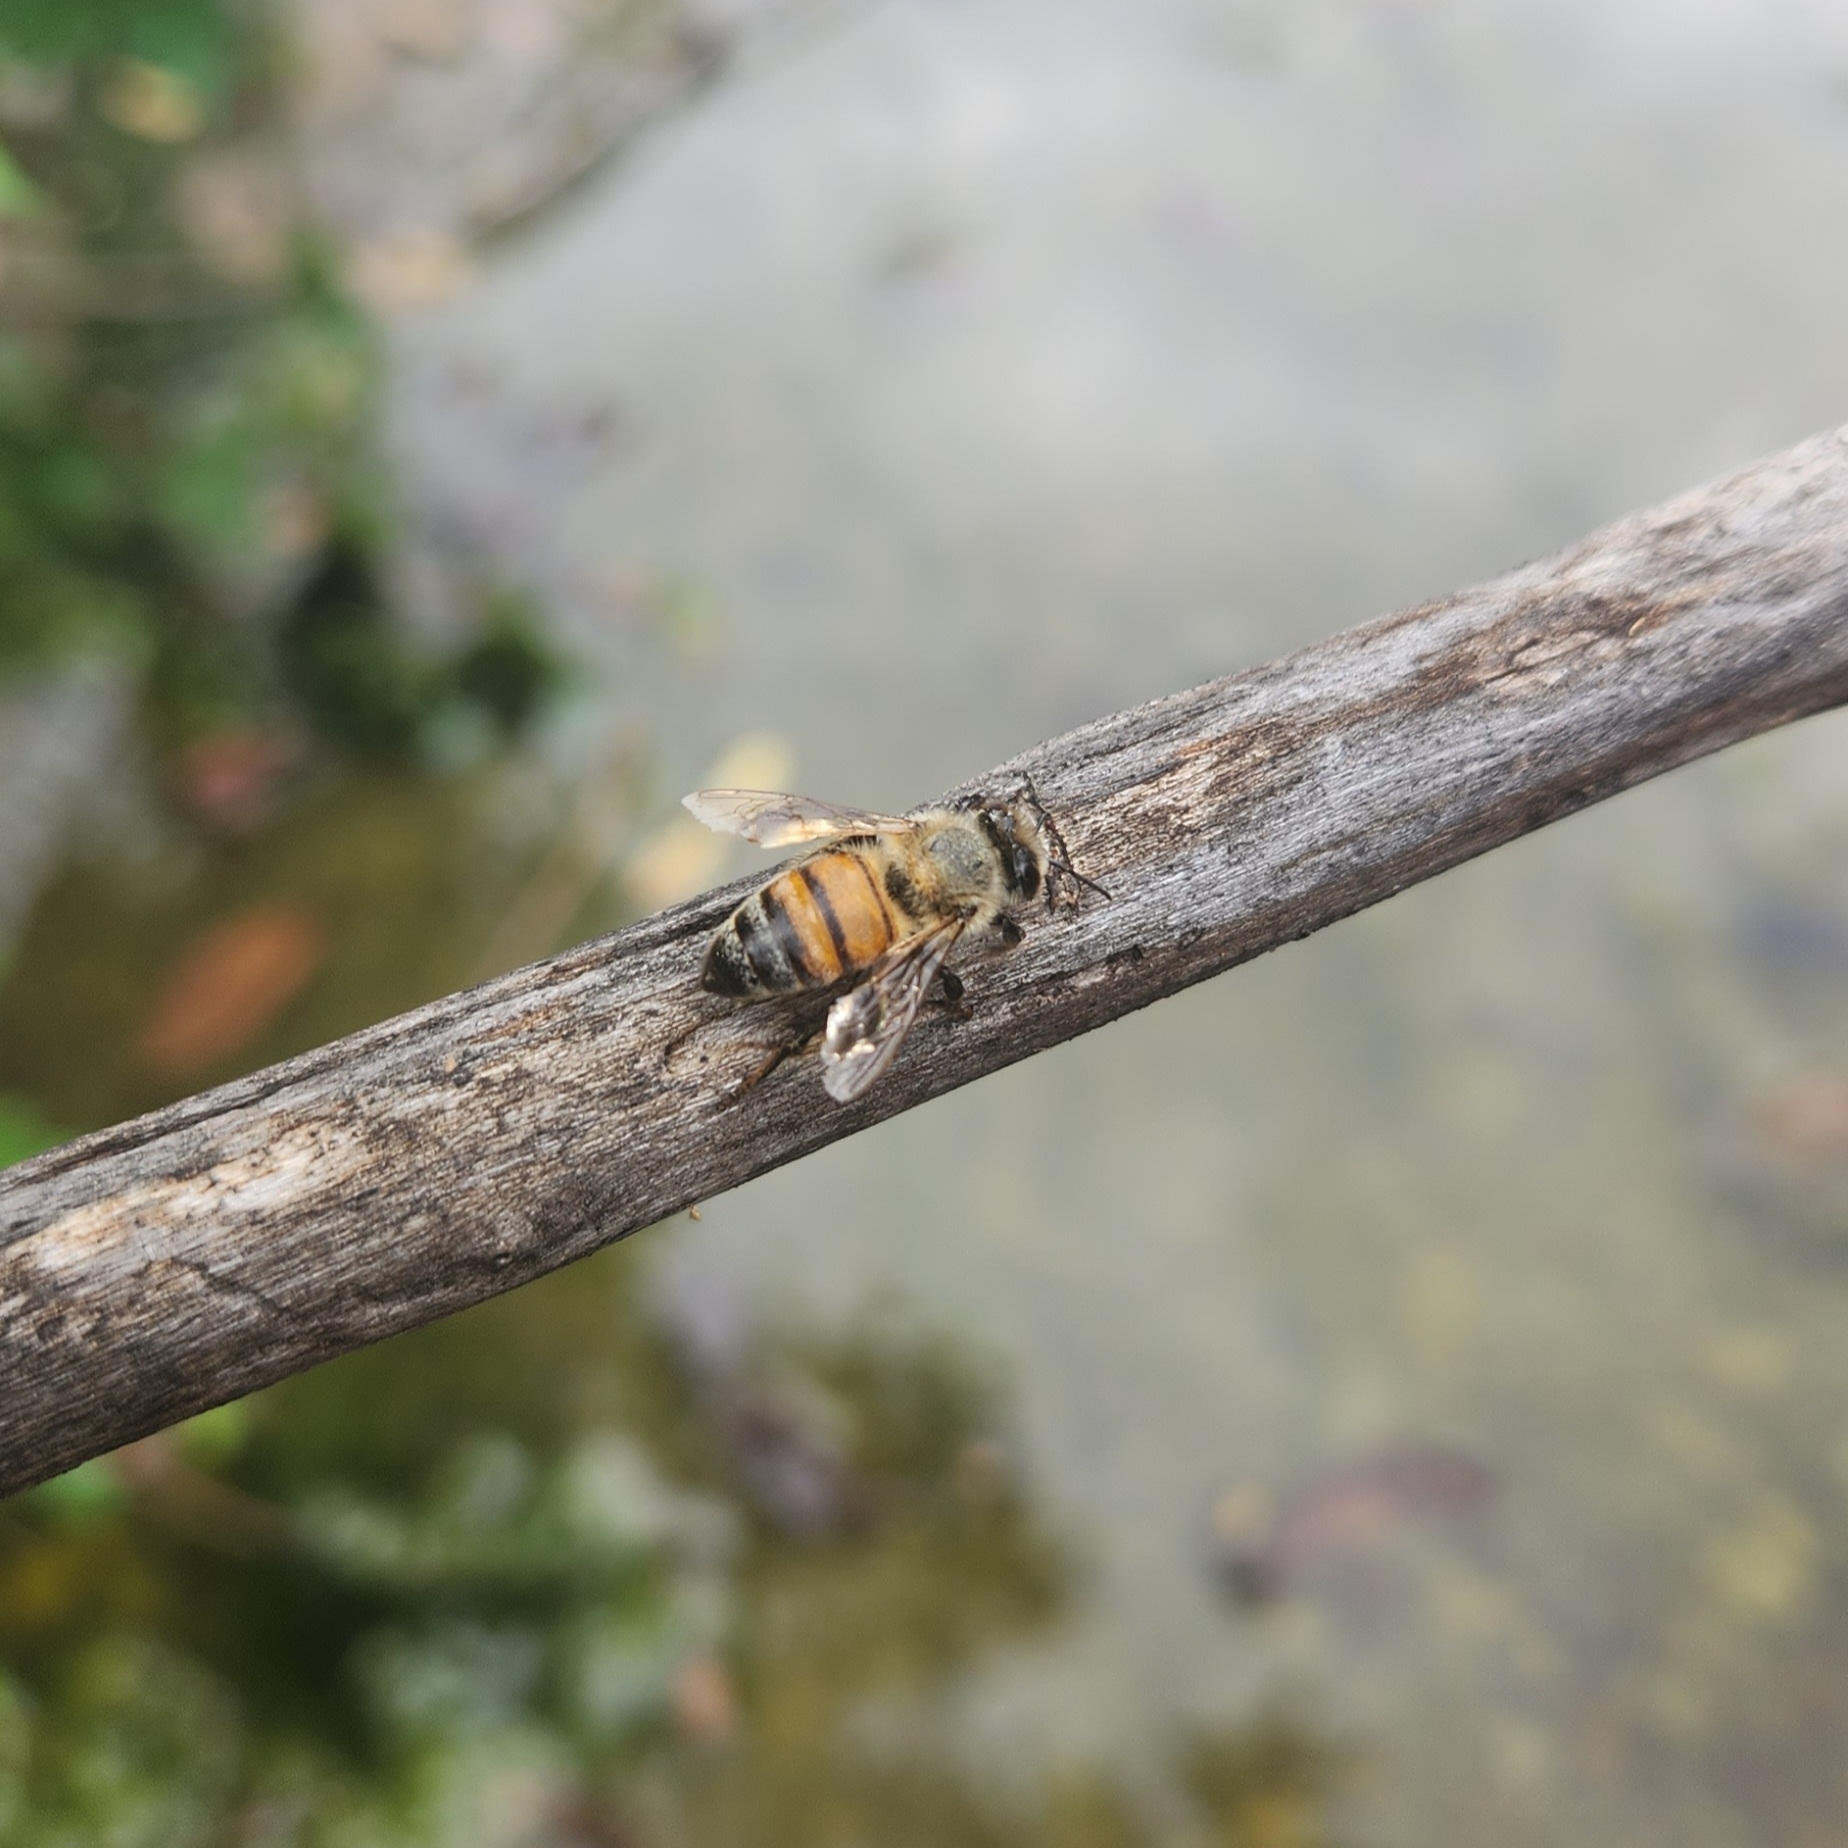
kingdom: Animalia
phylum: Arthropoda
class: Insecta
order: Hymenoptera
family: Apidae
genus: Apis
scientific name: Apis mellifera
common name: Honey bee
